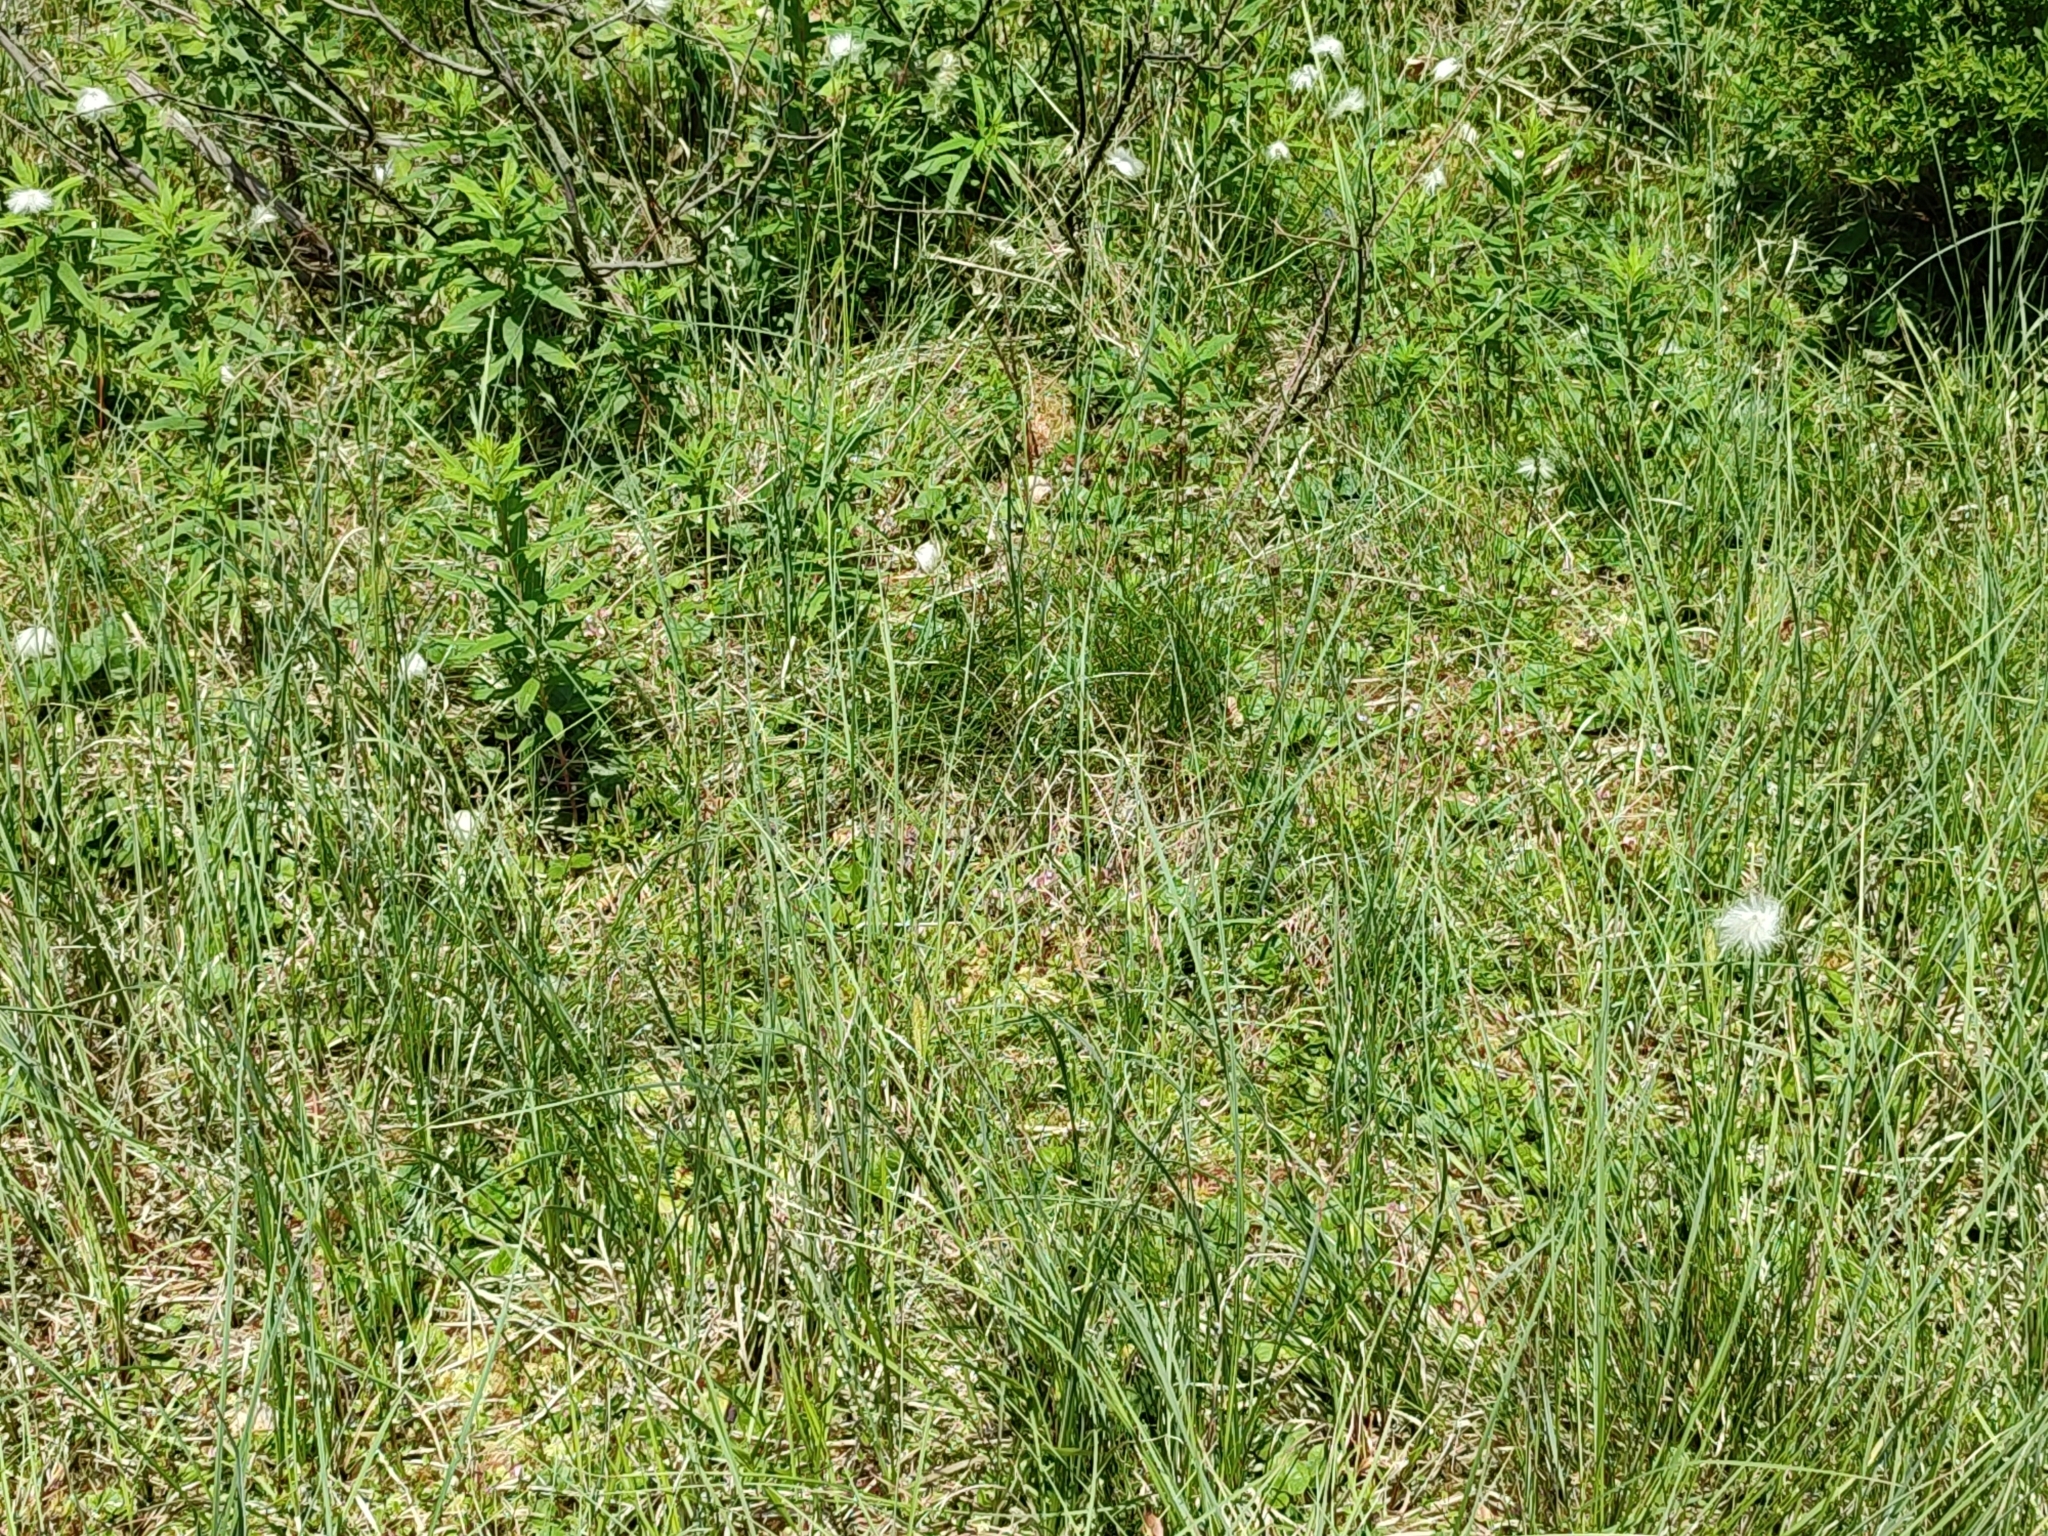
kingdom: Plantae
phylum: Tracheophyta
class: Liliopsida
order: Poales
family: Cyperaceae
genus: Eriophorum
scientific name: Eriophorum vaginatum
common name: Hare's-tail cottongrass
